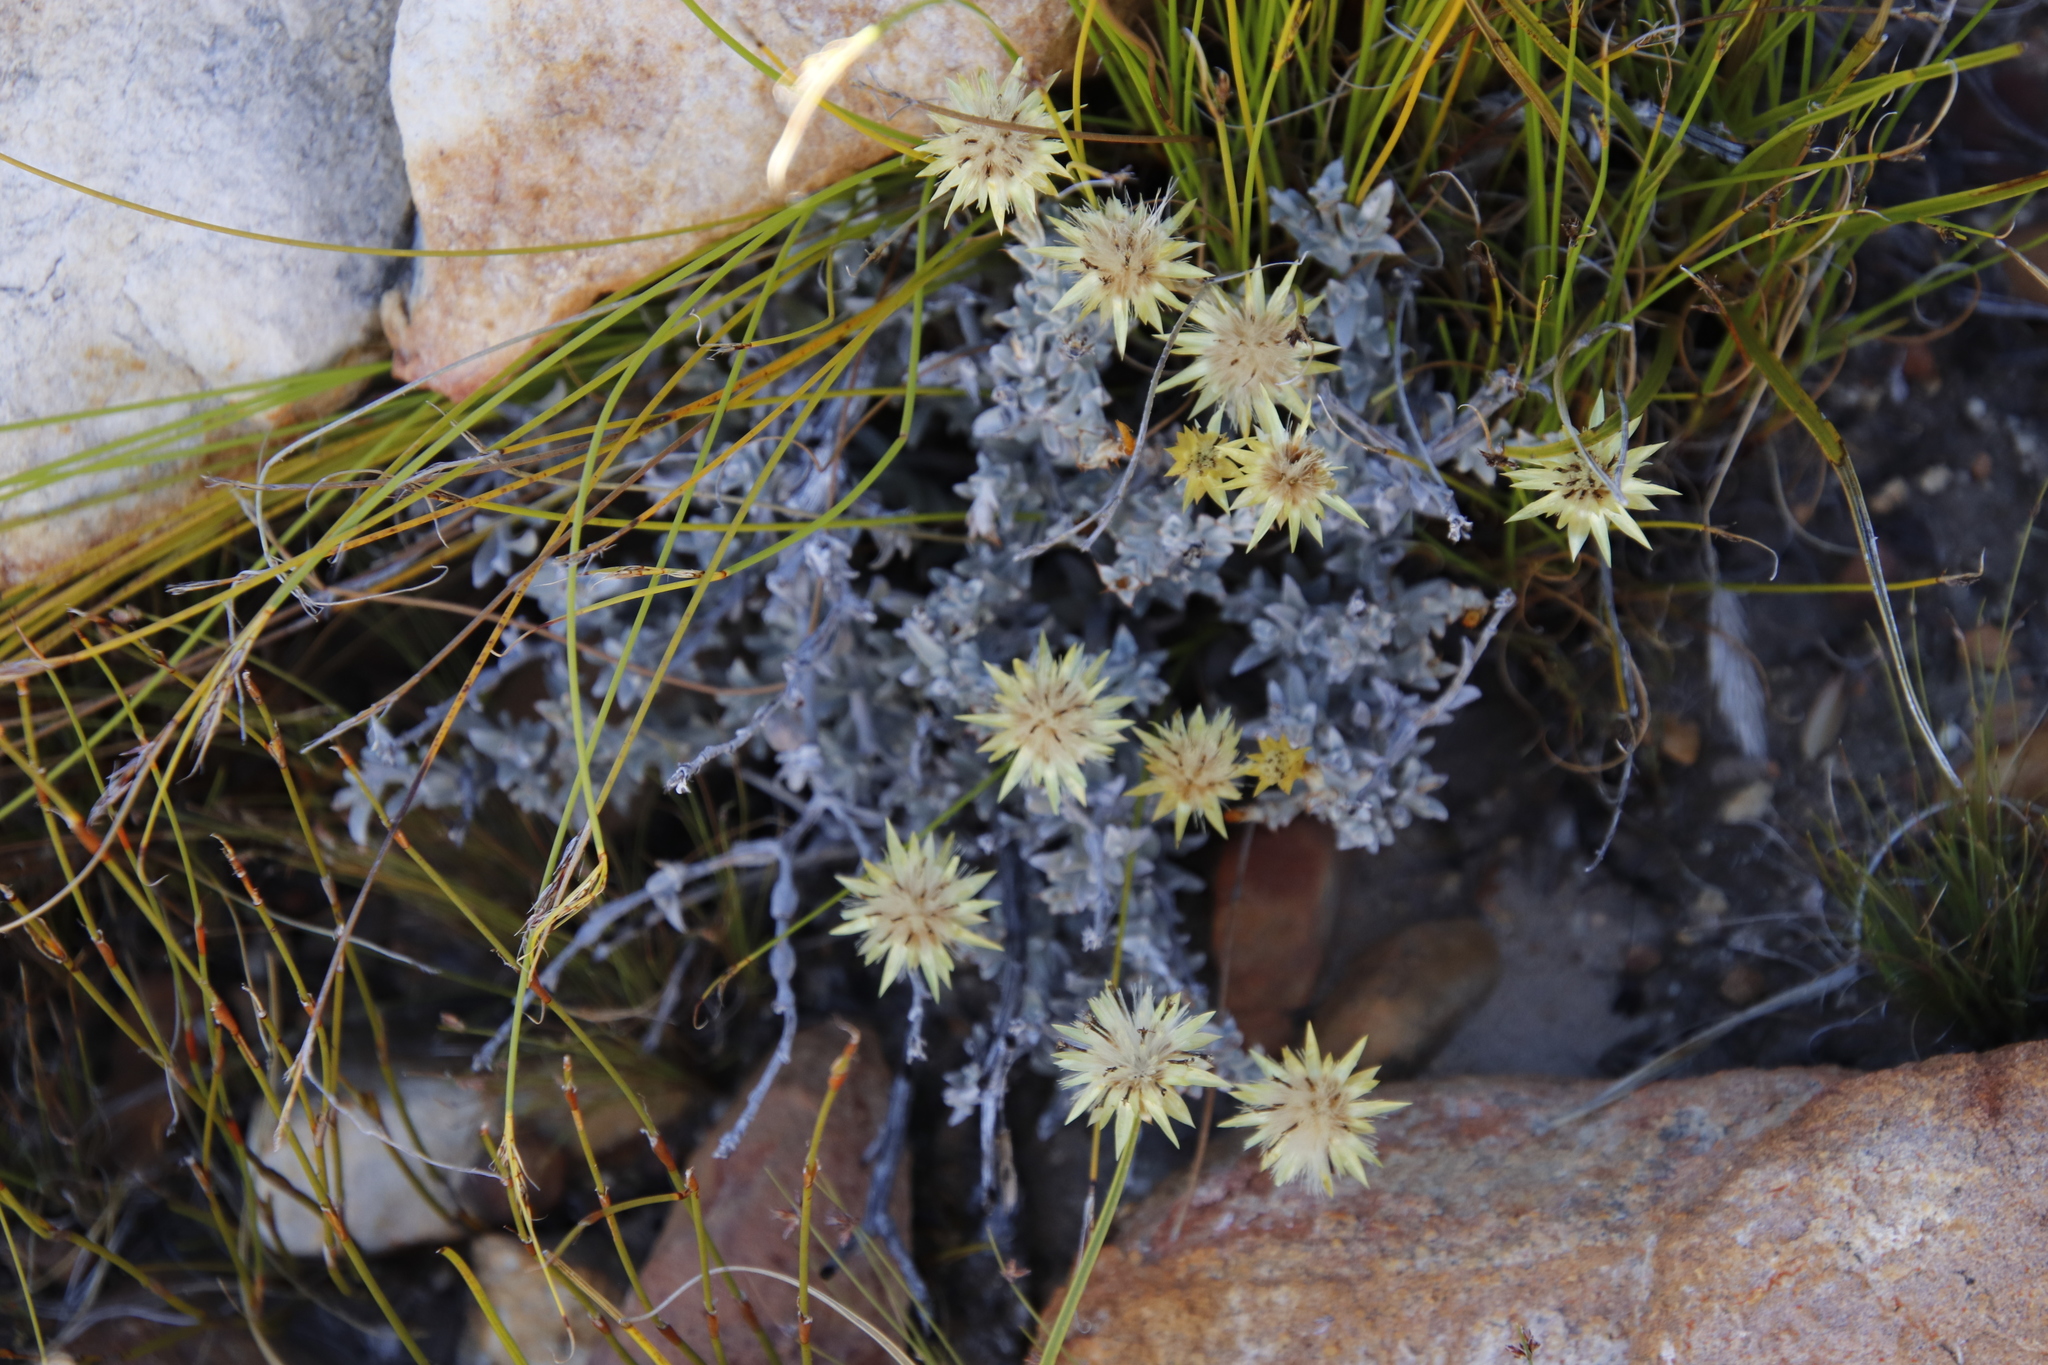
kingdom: Plantae
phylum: Tracheophyta
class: Magnoliopsida
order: Asterales
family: Asteraceae
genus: Syncarpha
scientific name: Syncarpha flava
